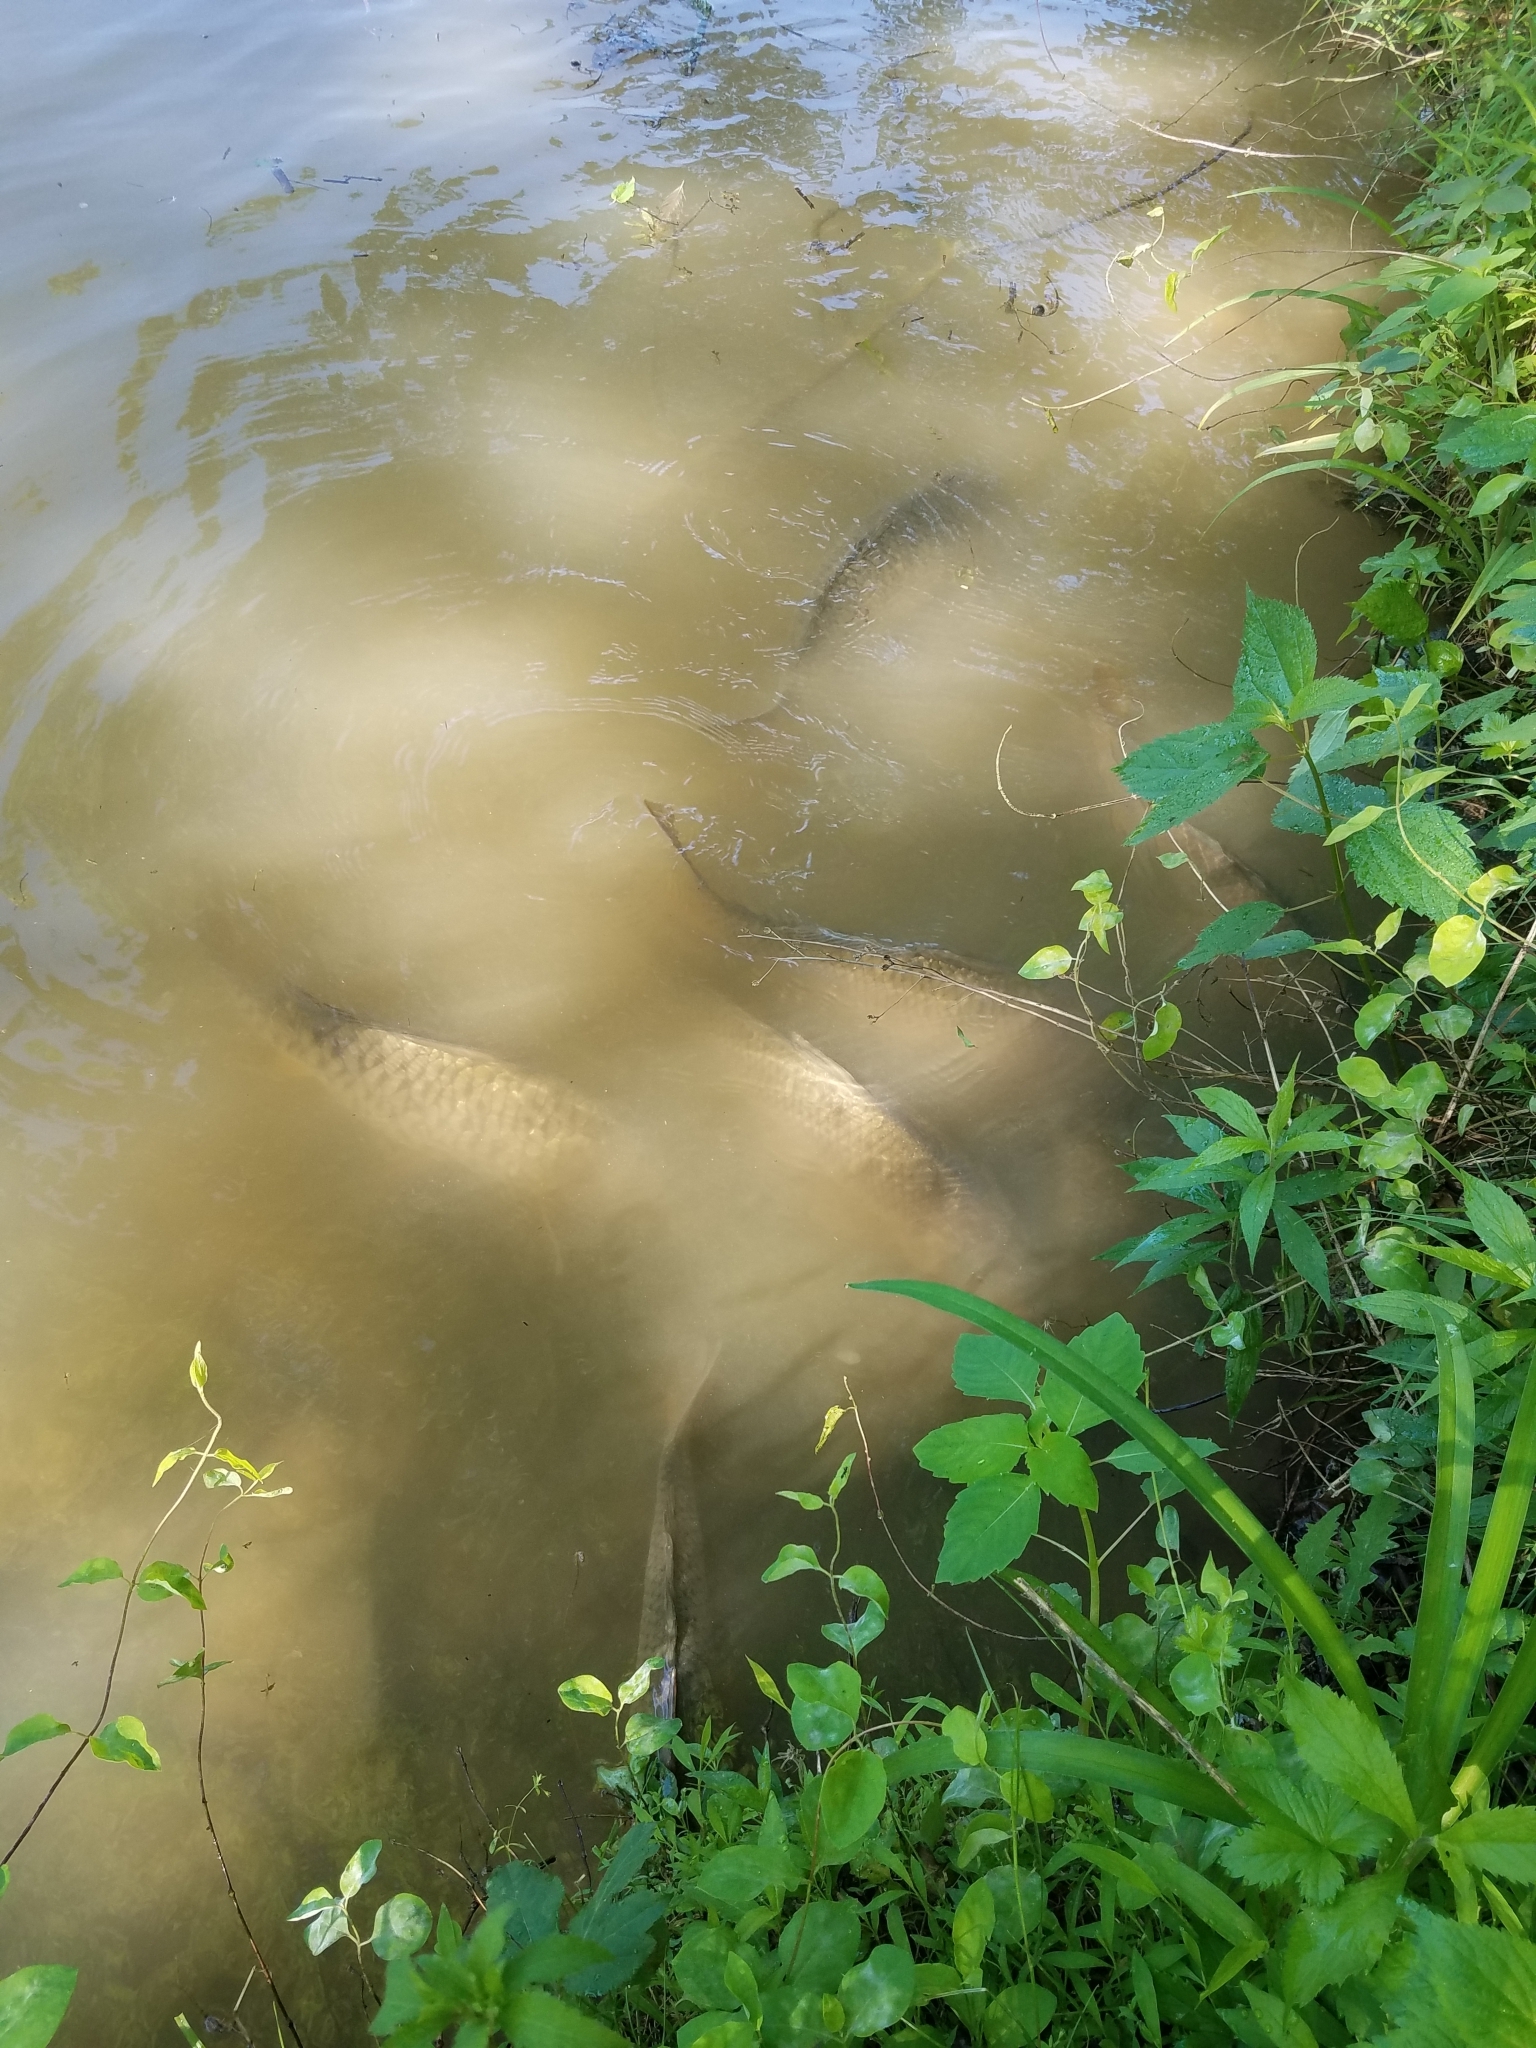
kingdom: Animalia
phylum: Chordata
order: Cypriniformes
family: Cyprinidae
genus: Cyprinus
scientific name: Cyprinus carpio
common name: Common carp
